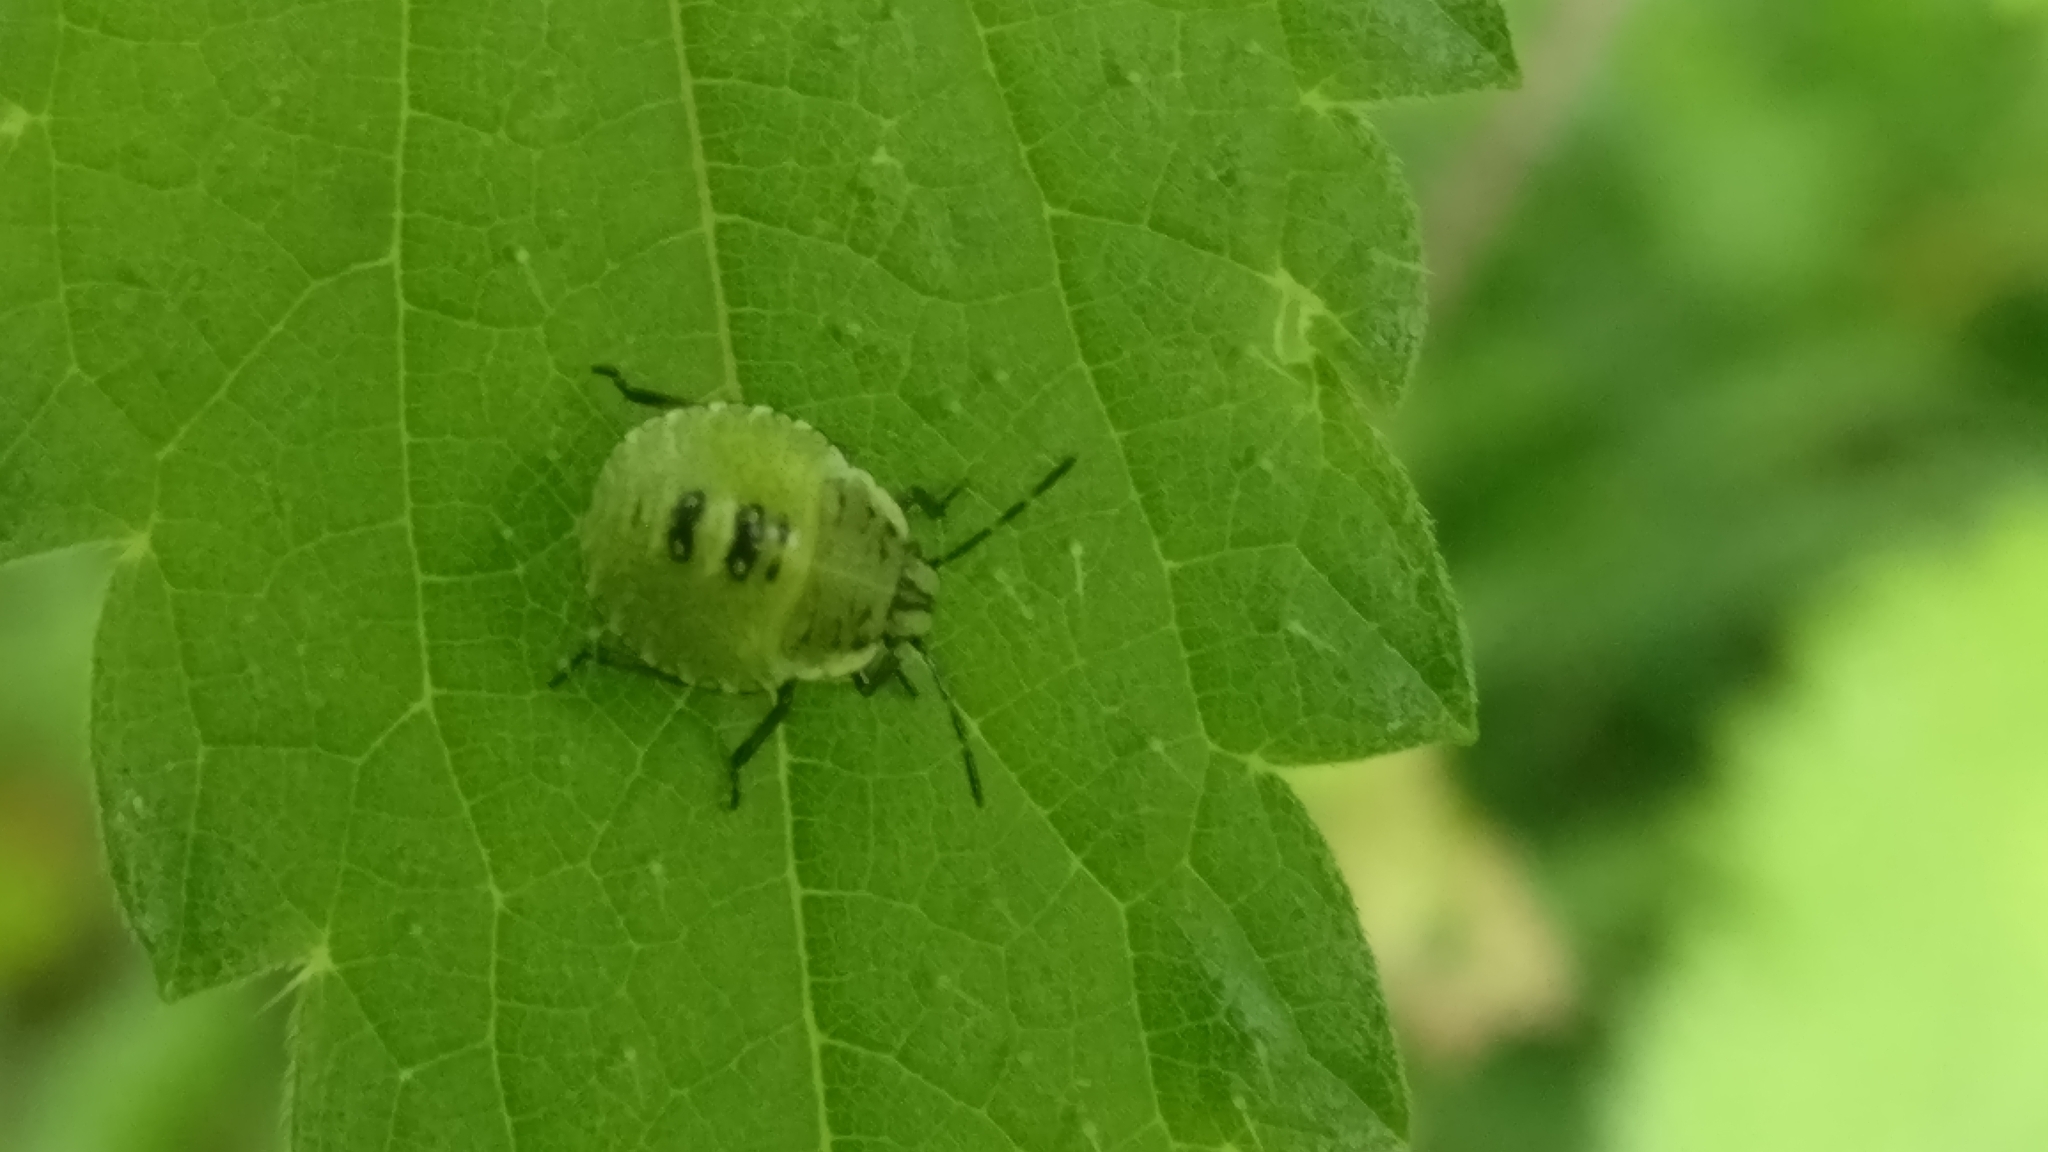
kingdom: Animalia
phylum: Arthropoda
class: Insecta
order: Hemiptera
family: Pentatomidae
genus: Palomena
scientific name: Palomena prasina
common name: Green shieldbug
